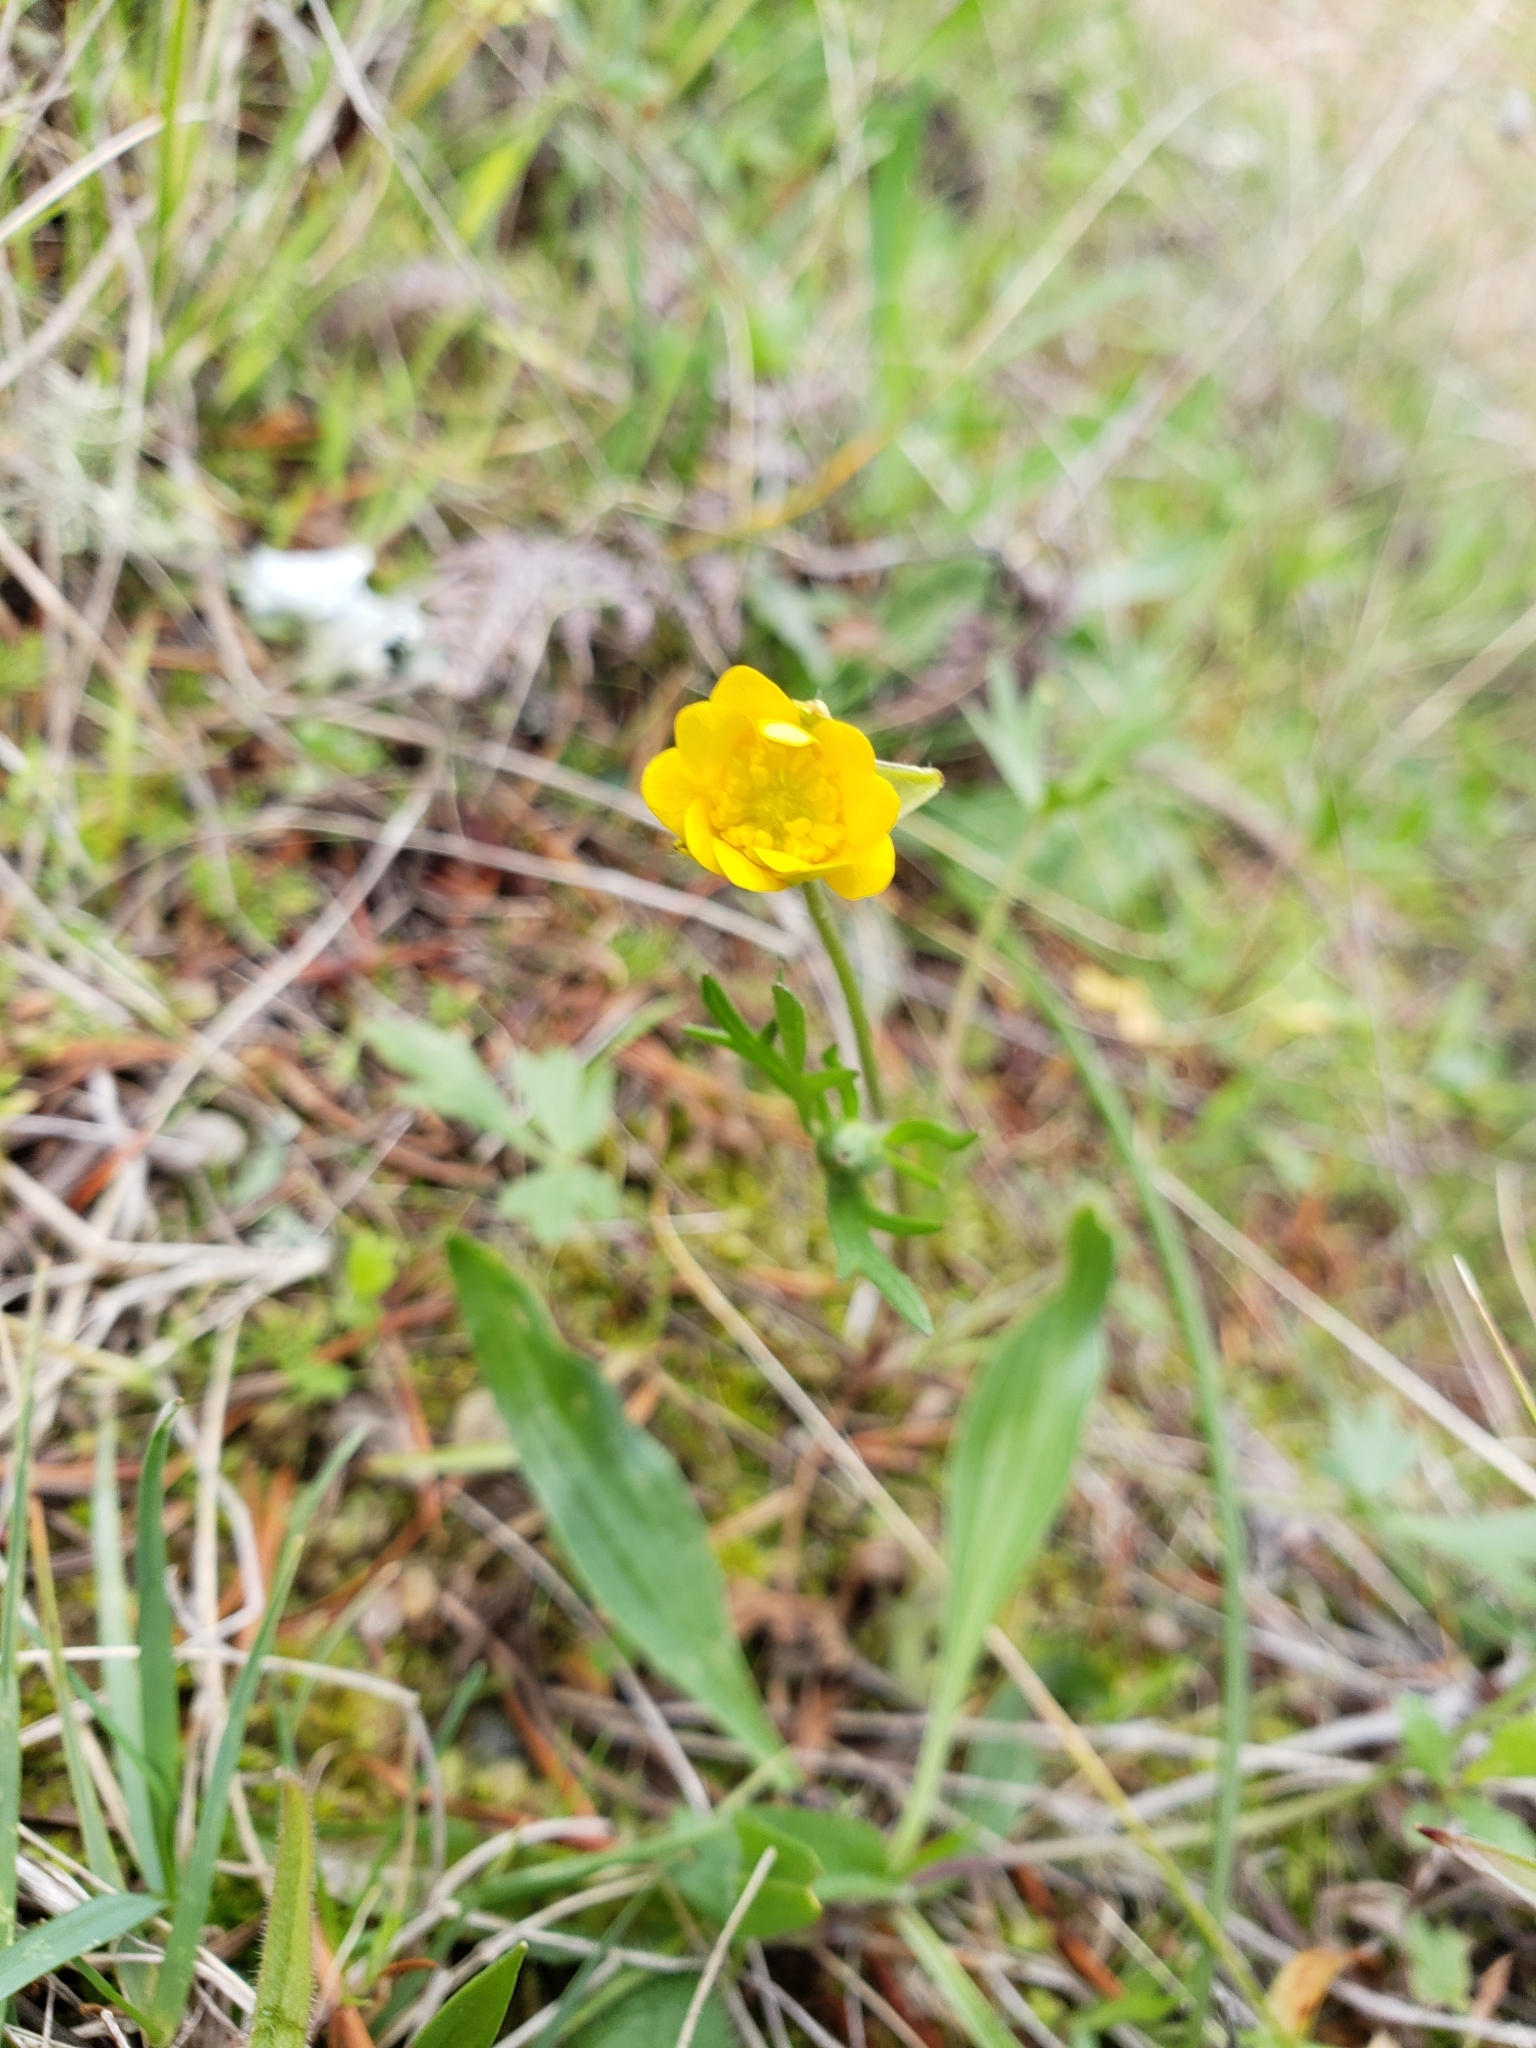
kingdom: Plantae
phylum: Tracheophyta
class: Magnoliopsida
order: Ranunculales
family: Ranunculaceae
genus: Ranunculus
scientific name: Ranunculus californicus
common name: California buttercup
